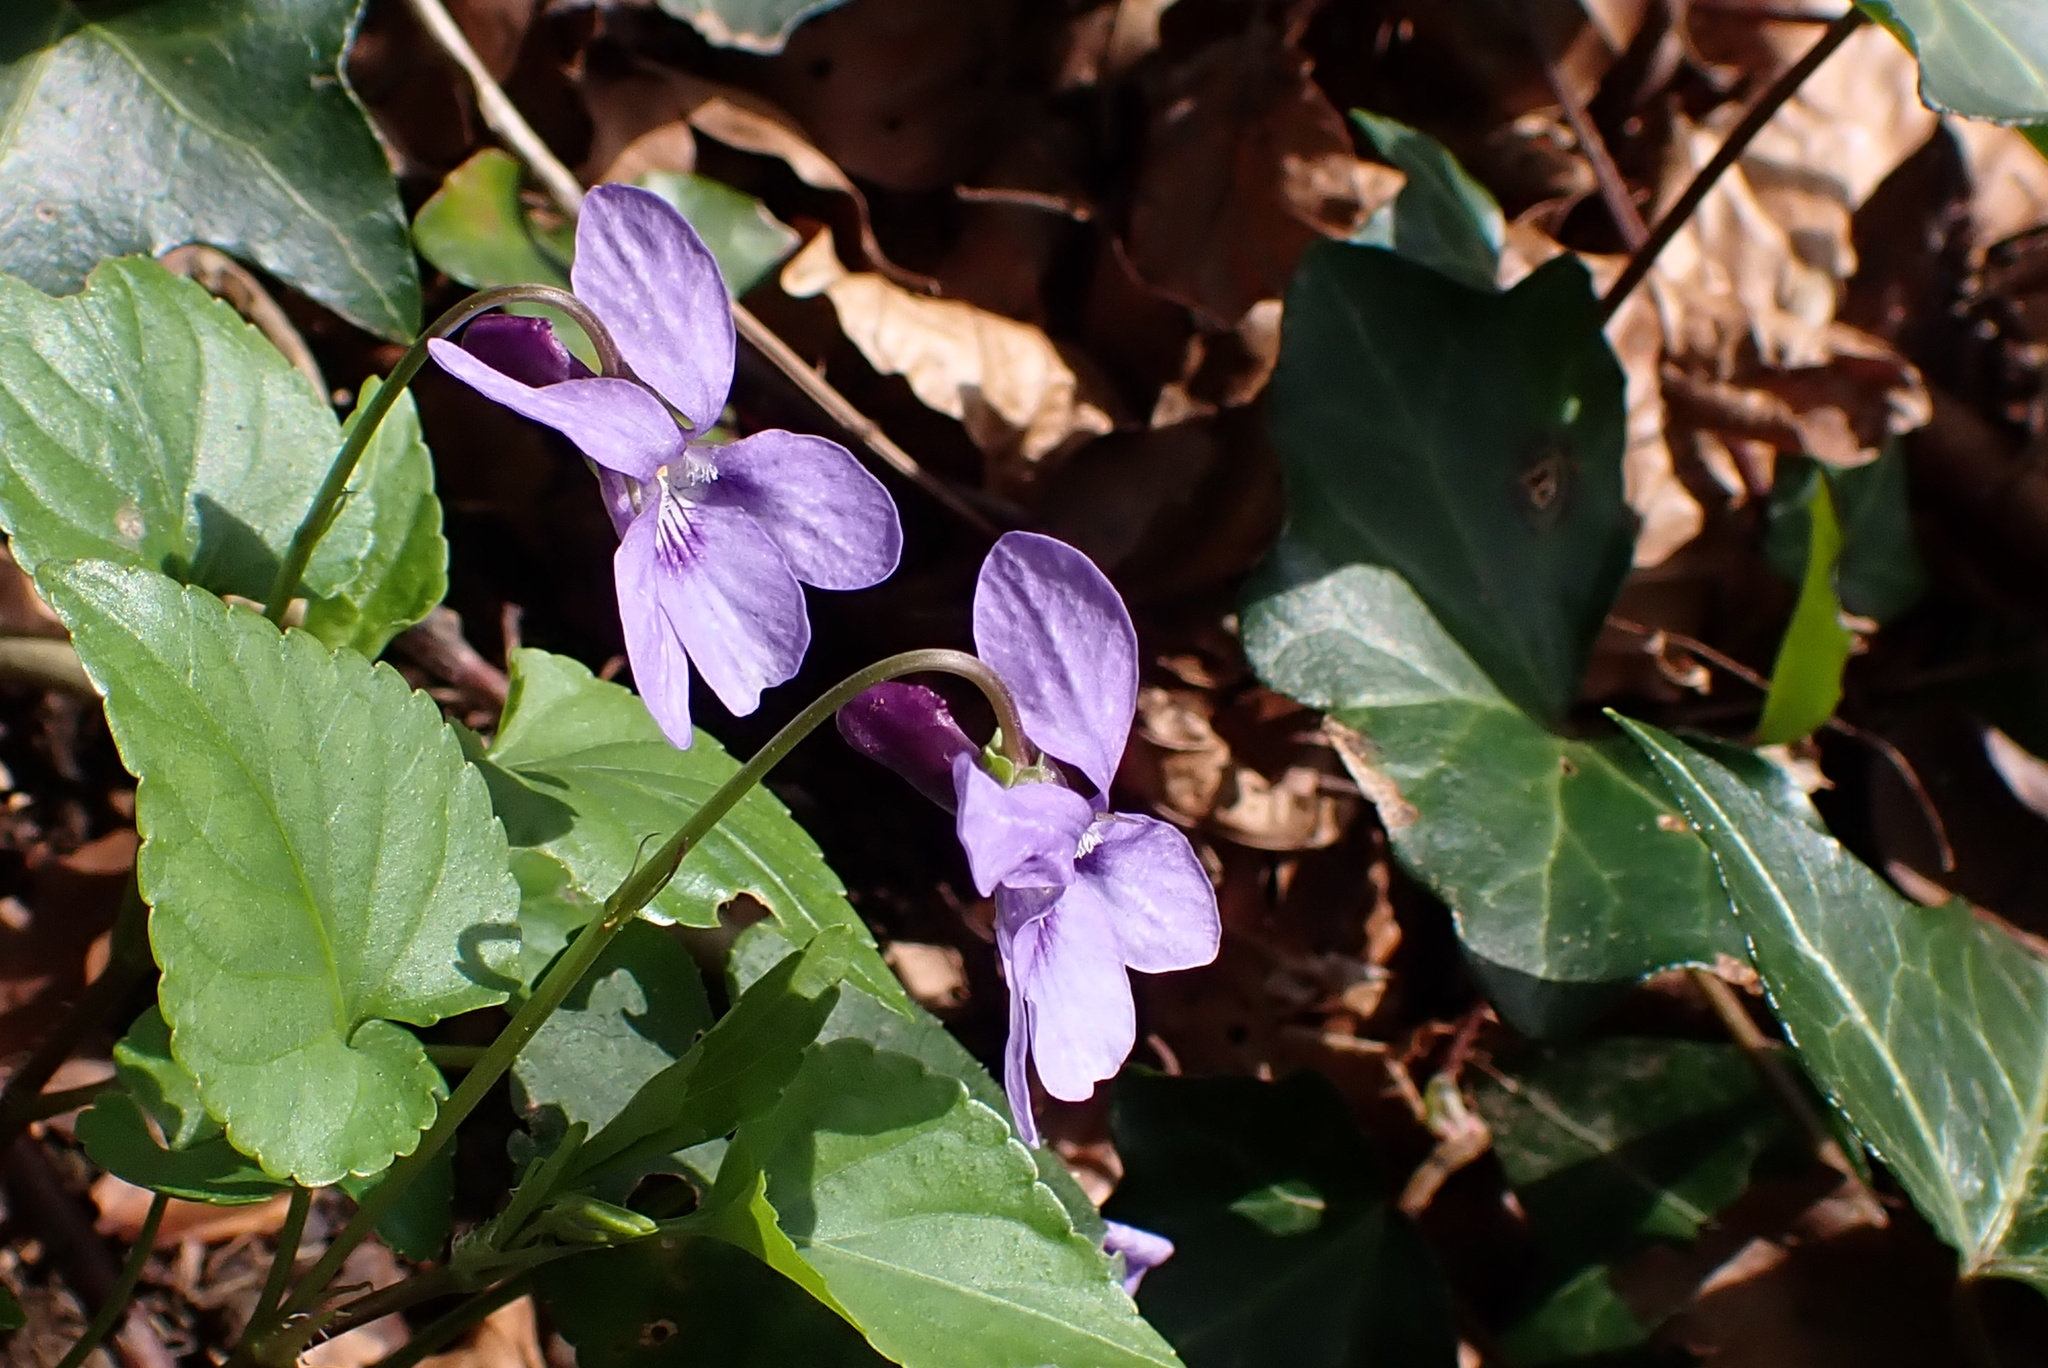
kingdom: Plantae
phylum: Tracheophyta
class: Magnoliopsida
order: Malpighiales
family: Violaceae
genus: Viola
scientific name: Viola reichenbachiana
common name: Early dog-violet
